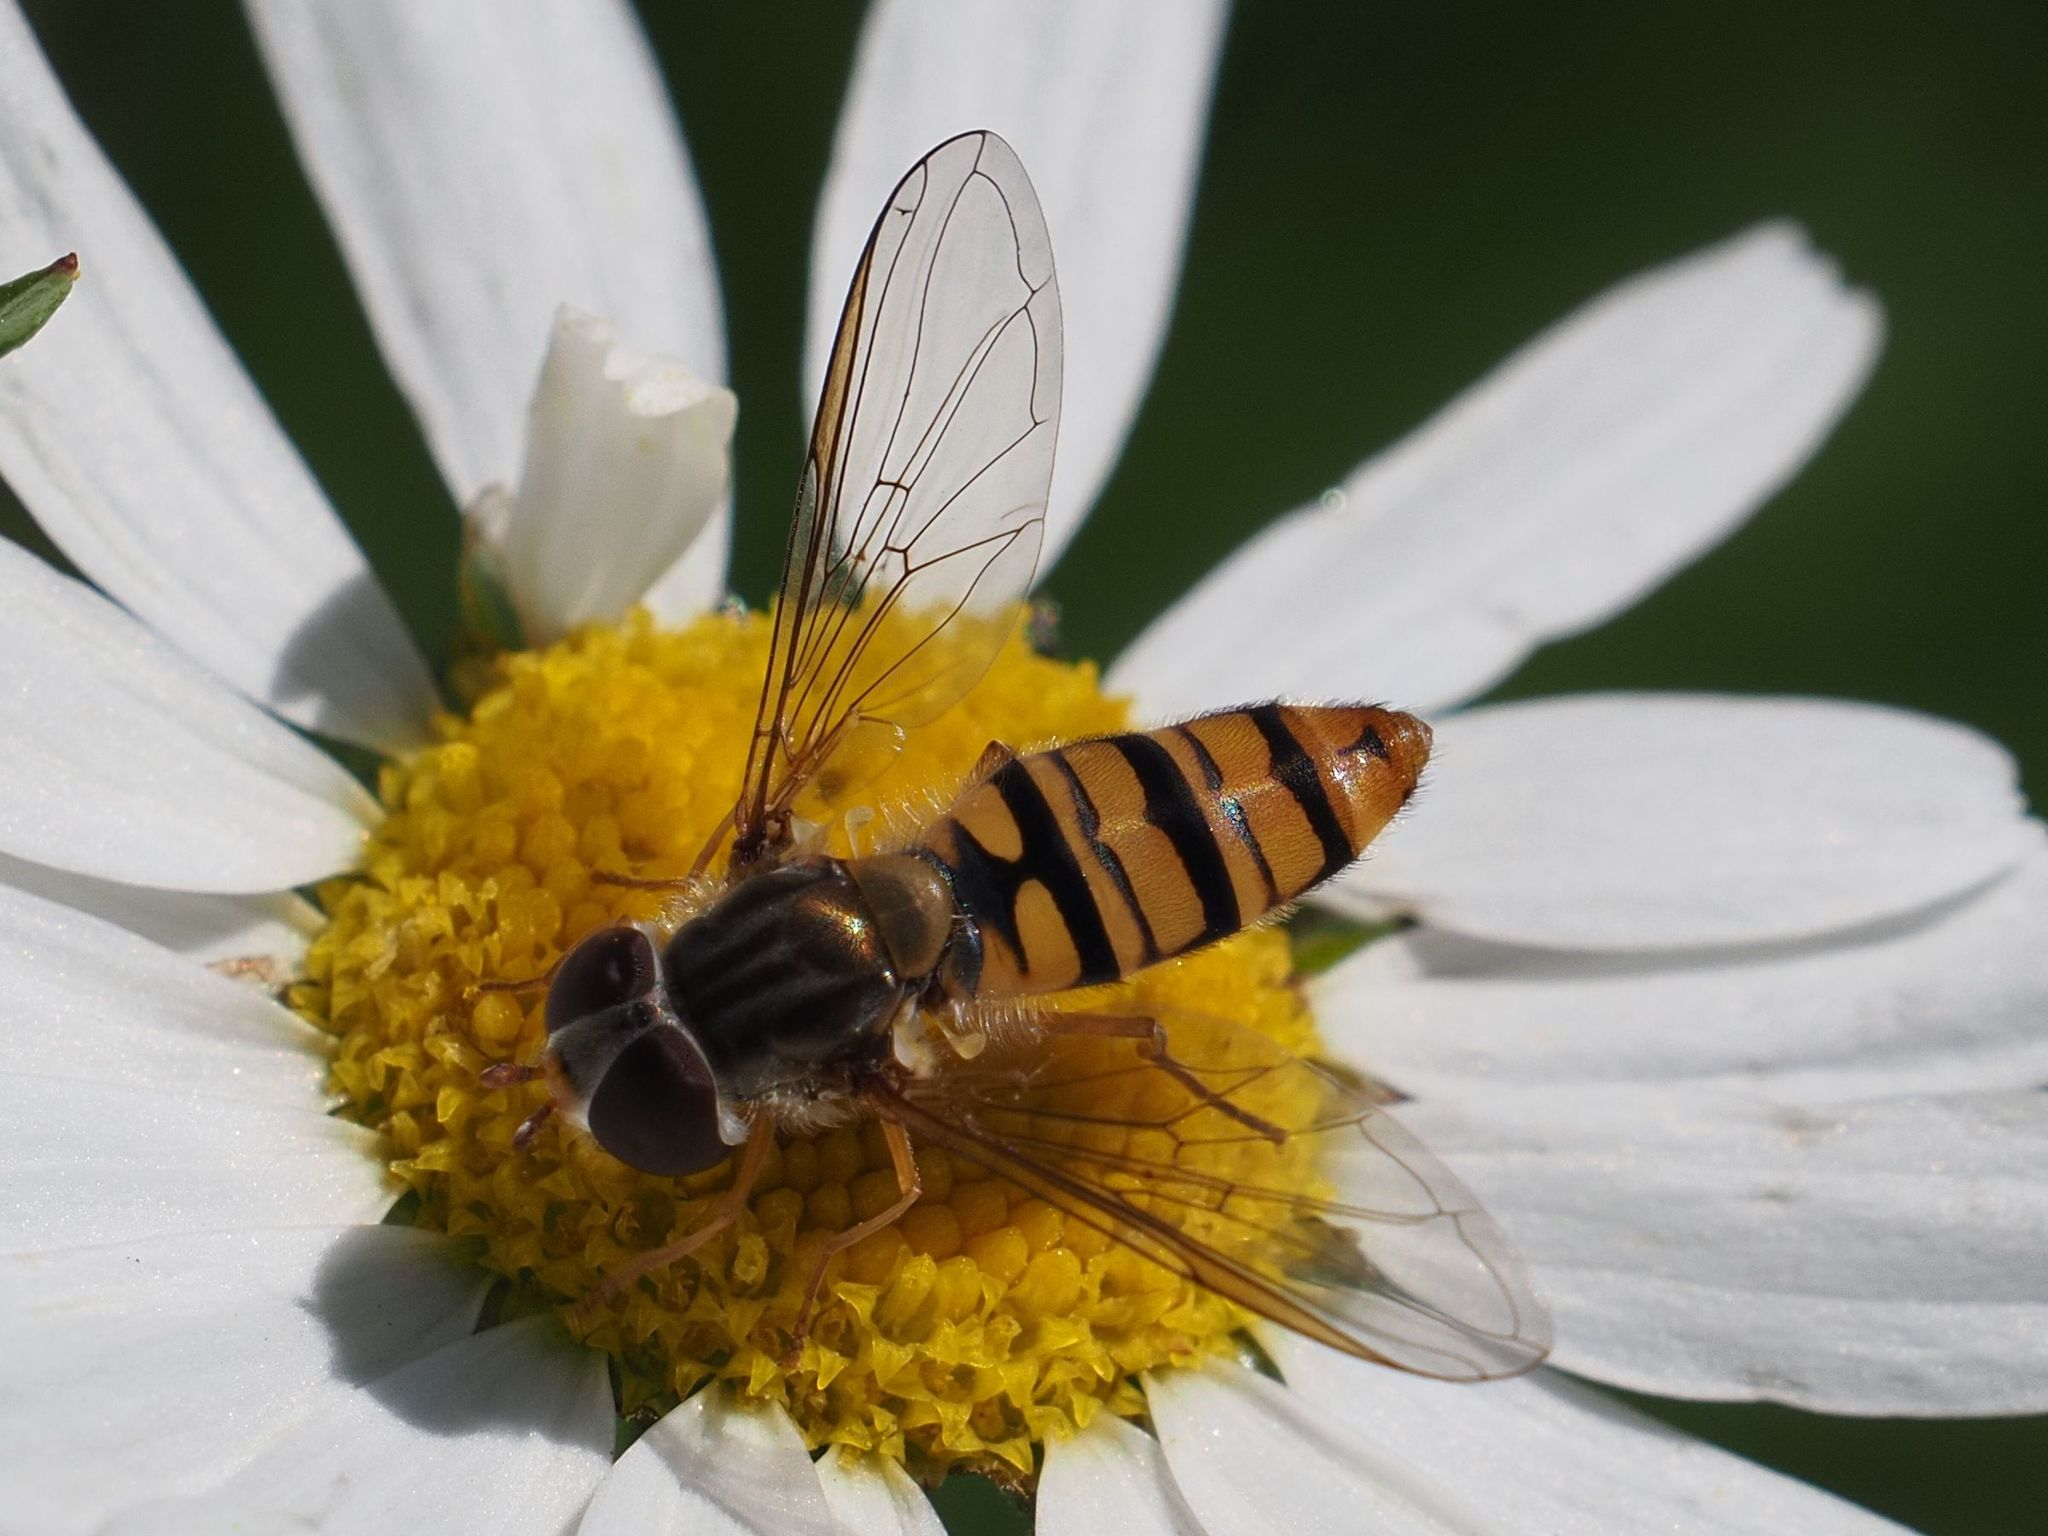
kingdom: Animalia
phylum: Arthropoda
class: Insecta
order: Diptera
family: Syrphidae
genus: Episyrphus
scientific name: Episyrphus balteatus
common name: Marmalade hoverfly
